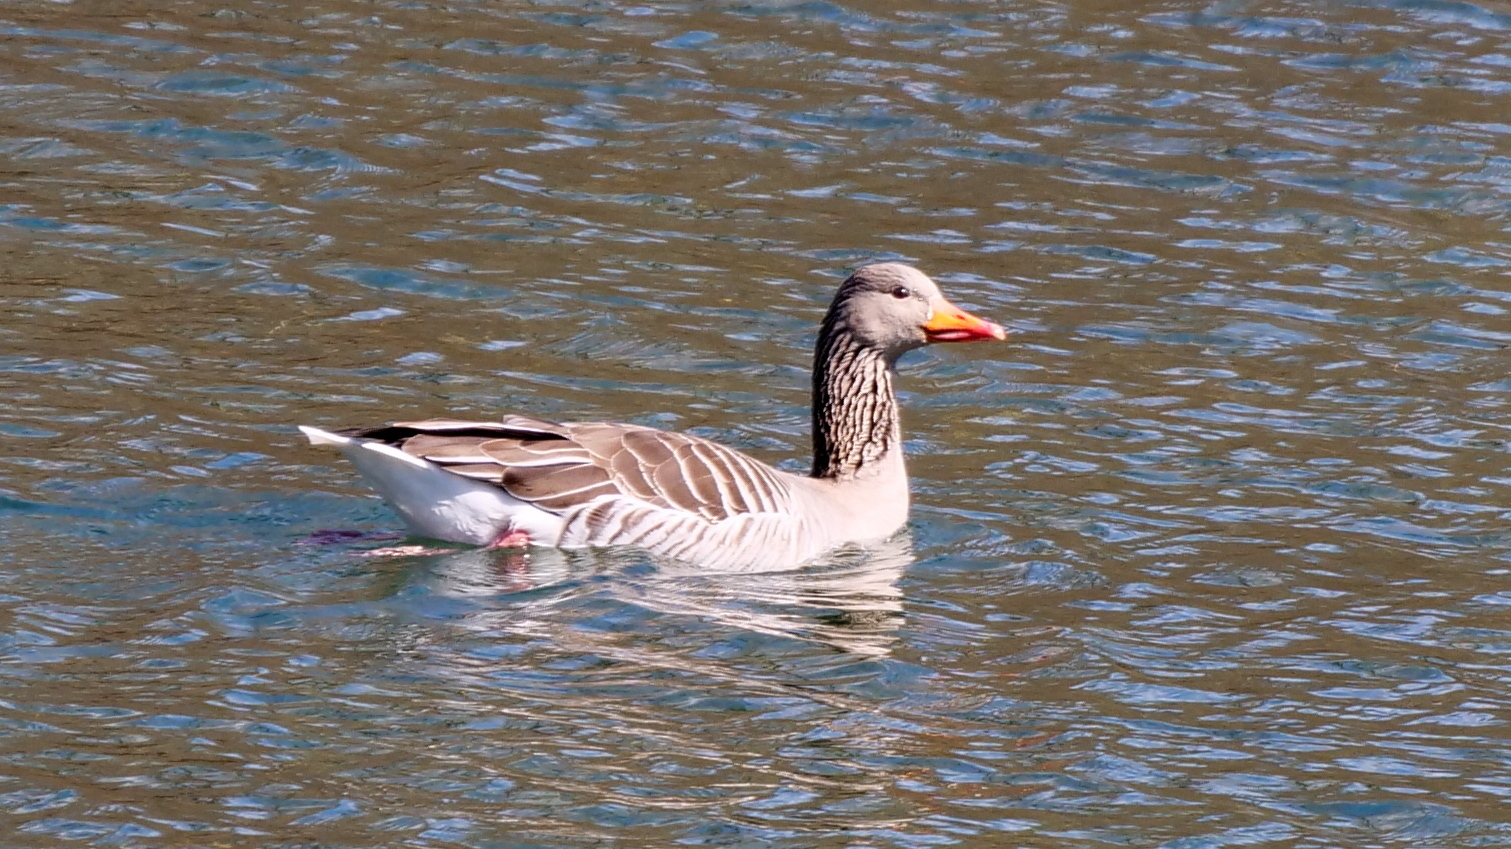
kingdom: Animalia
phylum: Chordata
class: Aves
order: Anseriformes
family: Anatidae
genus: Anser
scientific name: Anser anser
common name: Greylag goose
